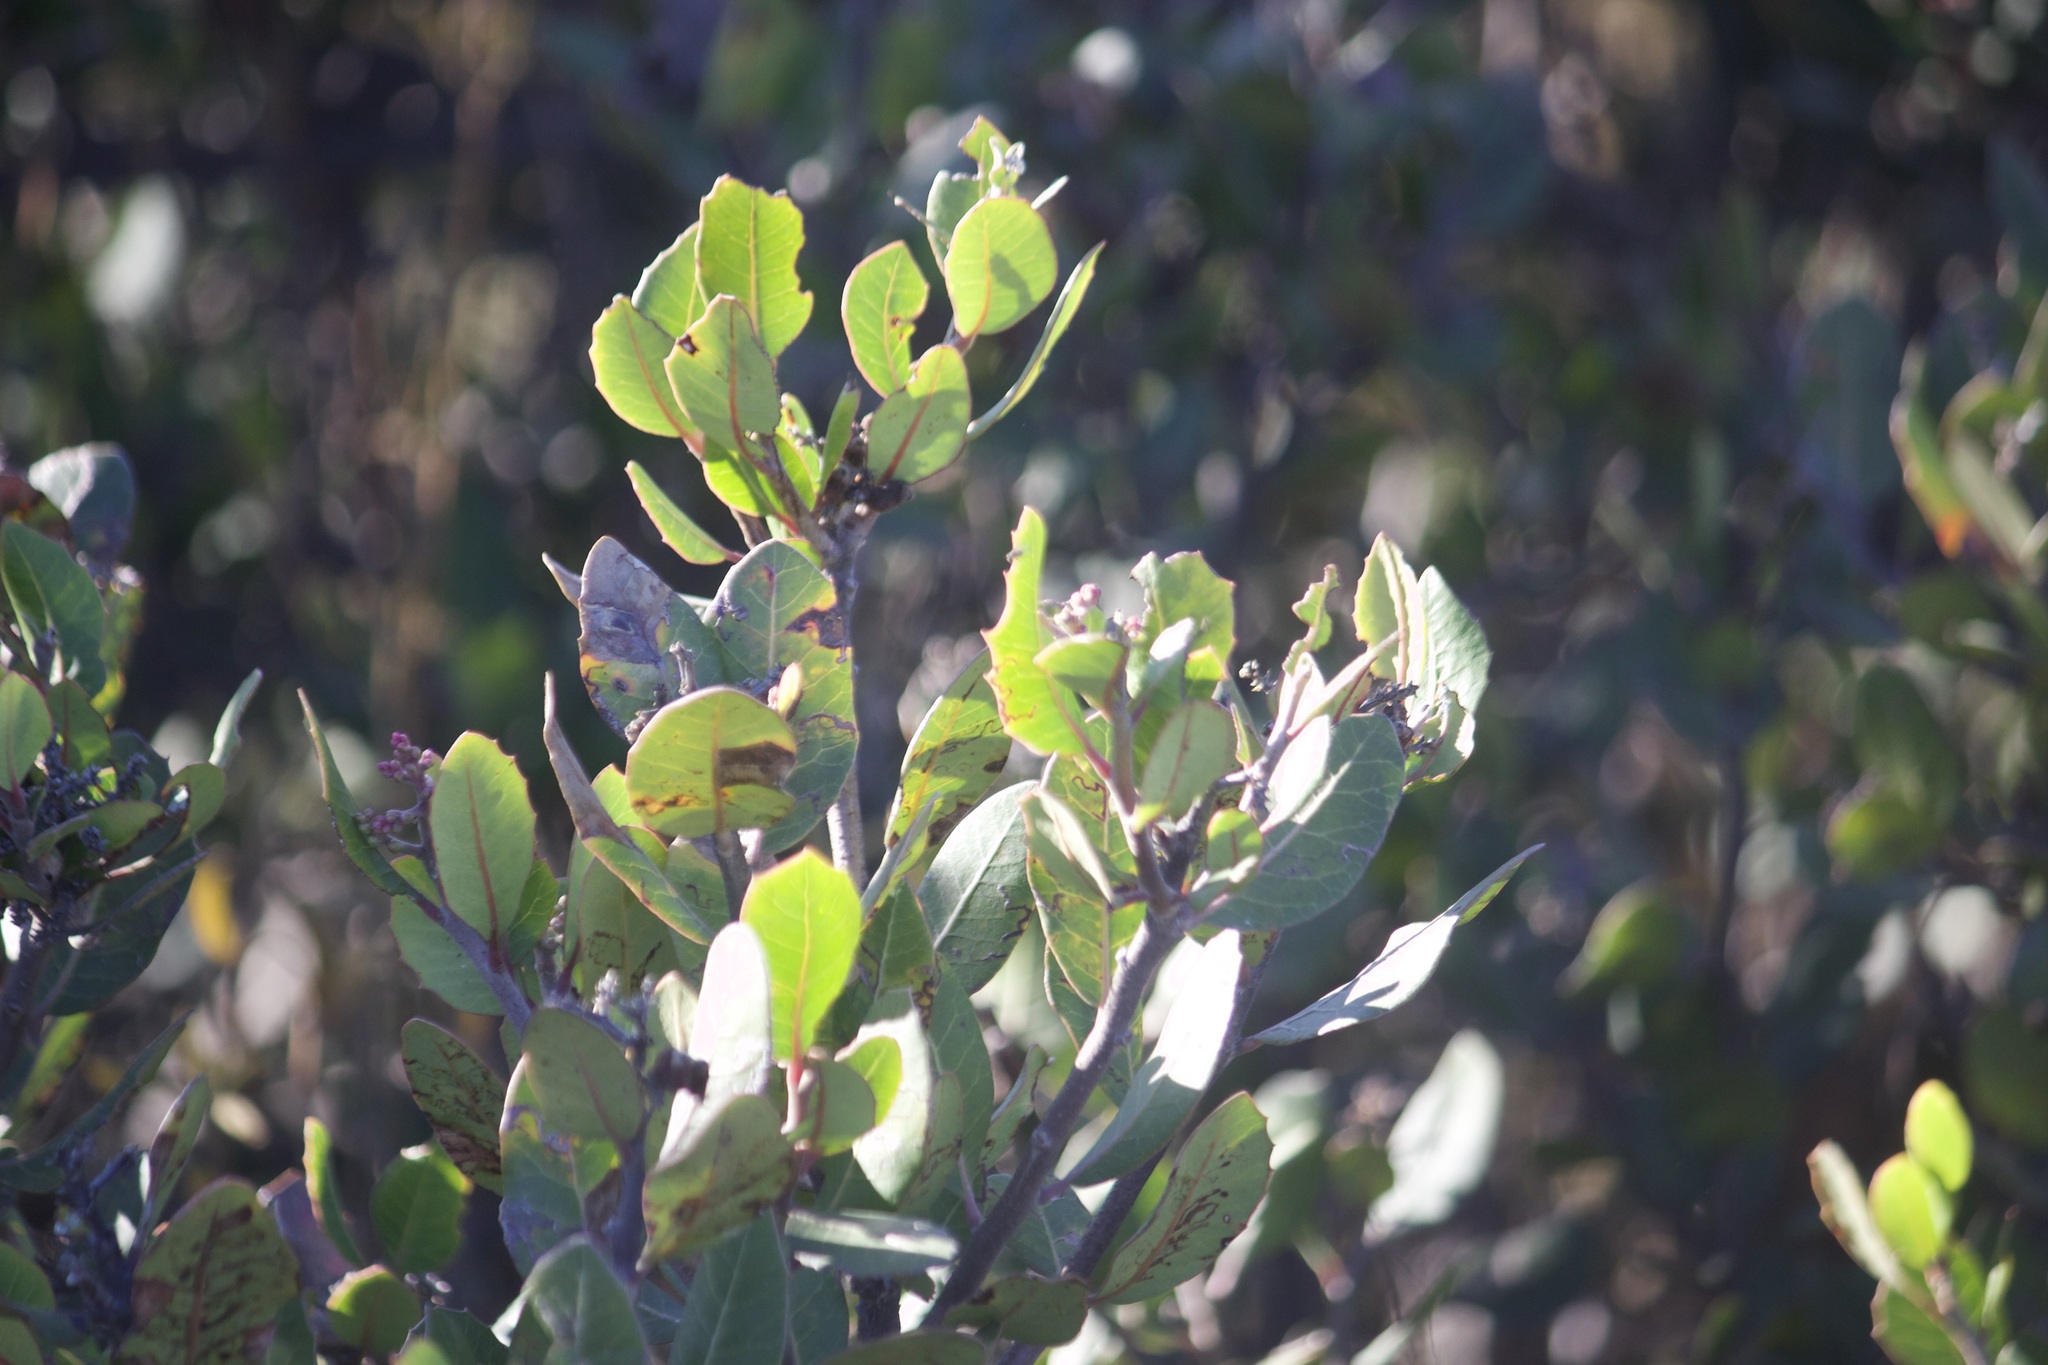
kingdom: Plantae
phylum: Tracheophyta
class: Magnoliopsida
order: Sapindales
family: Anacardiaceae
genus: Rhus
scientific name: Rhus integrifolia
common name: Lemonade sumac
